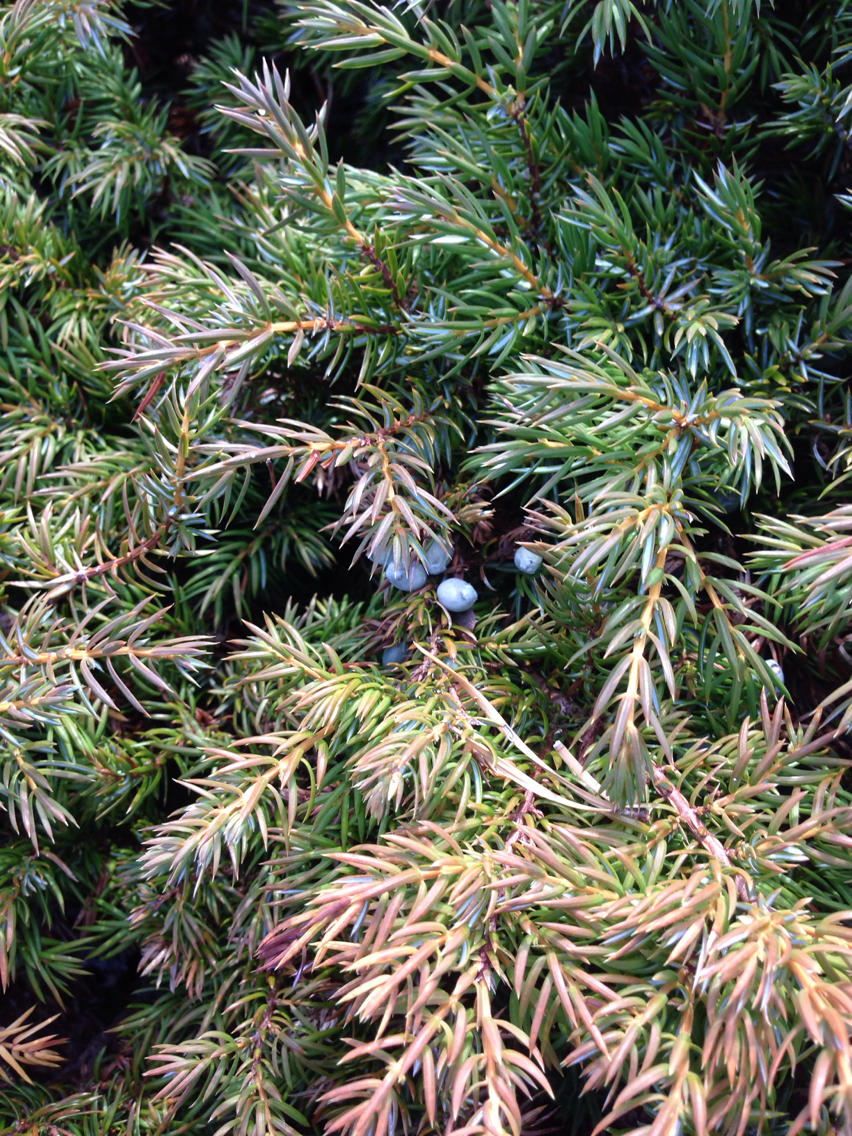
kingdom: Plantae
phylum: Tracheophyta
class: Pinopsida
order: Pinales
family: Cupressaceae
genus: Juniperus
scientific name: Juniperus communis
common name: Common juniper
